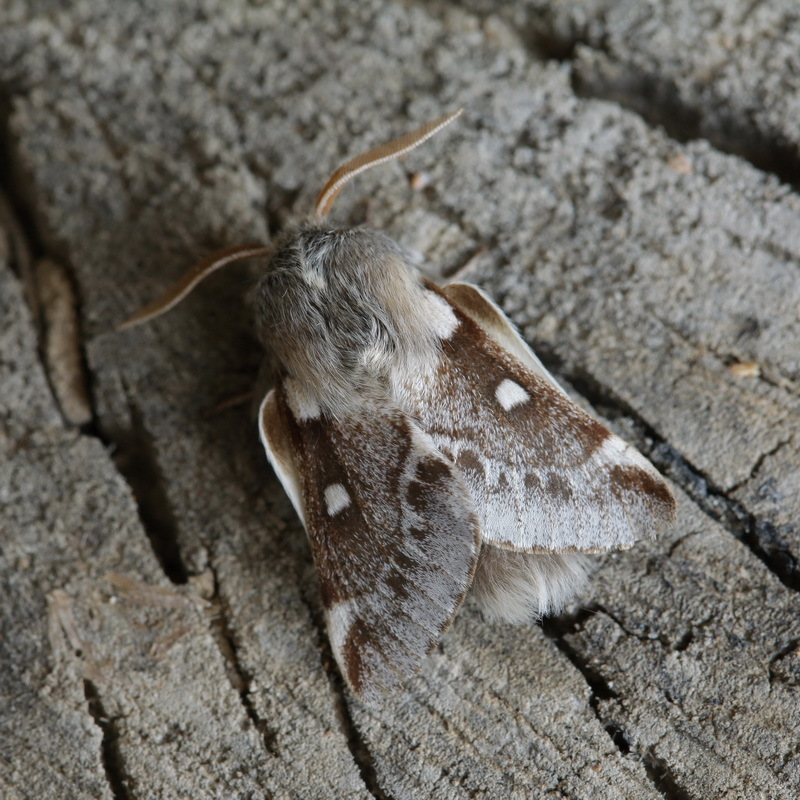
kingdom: Animalia
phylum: Arthropoda
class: Insecta
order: Lepidoptera
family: Lasiocampidae
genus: Eriogaster
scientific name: Eriogaster lanestris
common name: Small eggar
